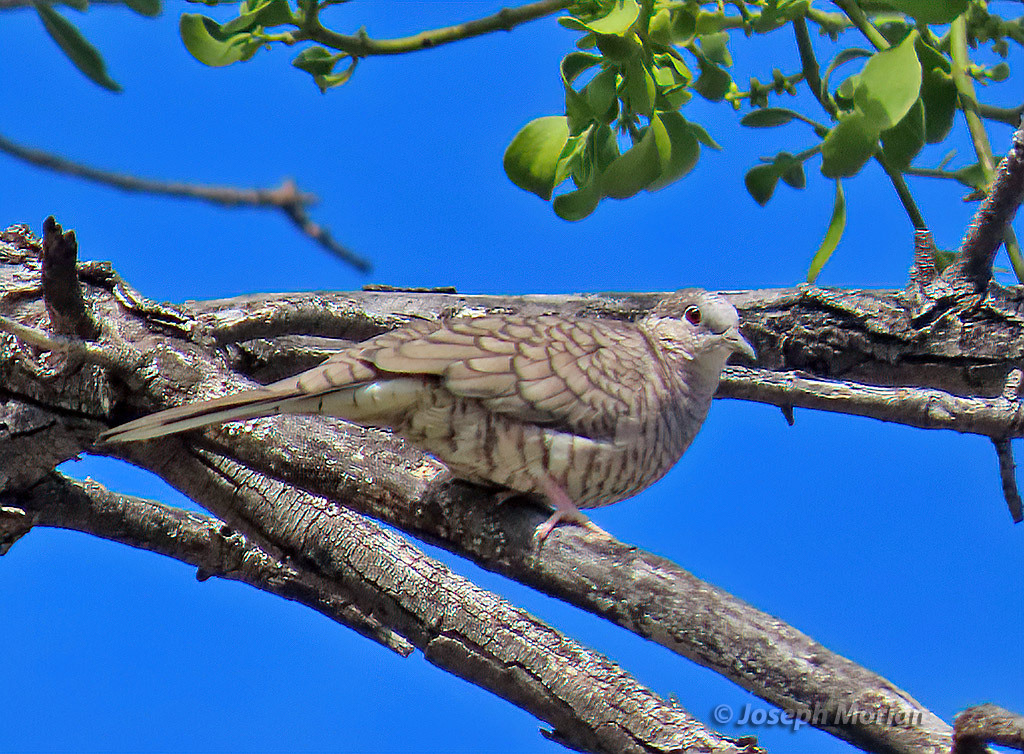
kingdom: Animalia
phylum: Chordata
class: Aves
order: Columbiformes
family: Columbidae
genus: Columbina
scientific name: Columbina inca
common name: Inca dove
